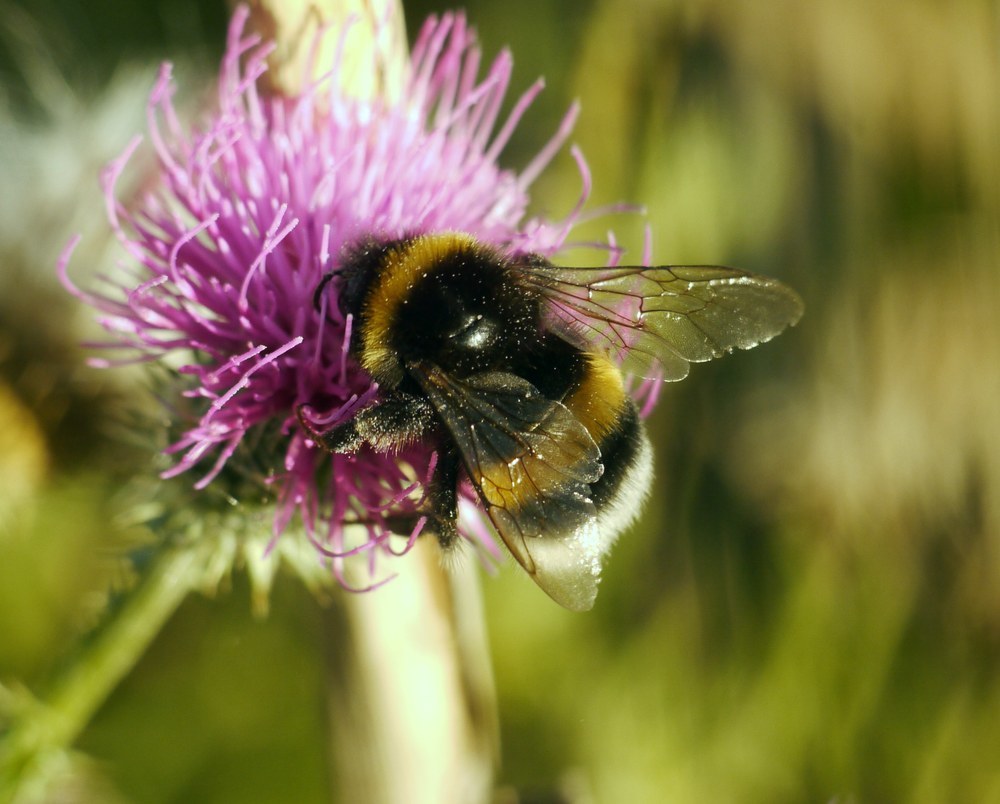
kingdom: Animalia
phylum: Arthropoda
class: Insecta
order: Hymenoptera
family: Apidae
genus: Bombus
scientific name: Bombus
